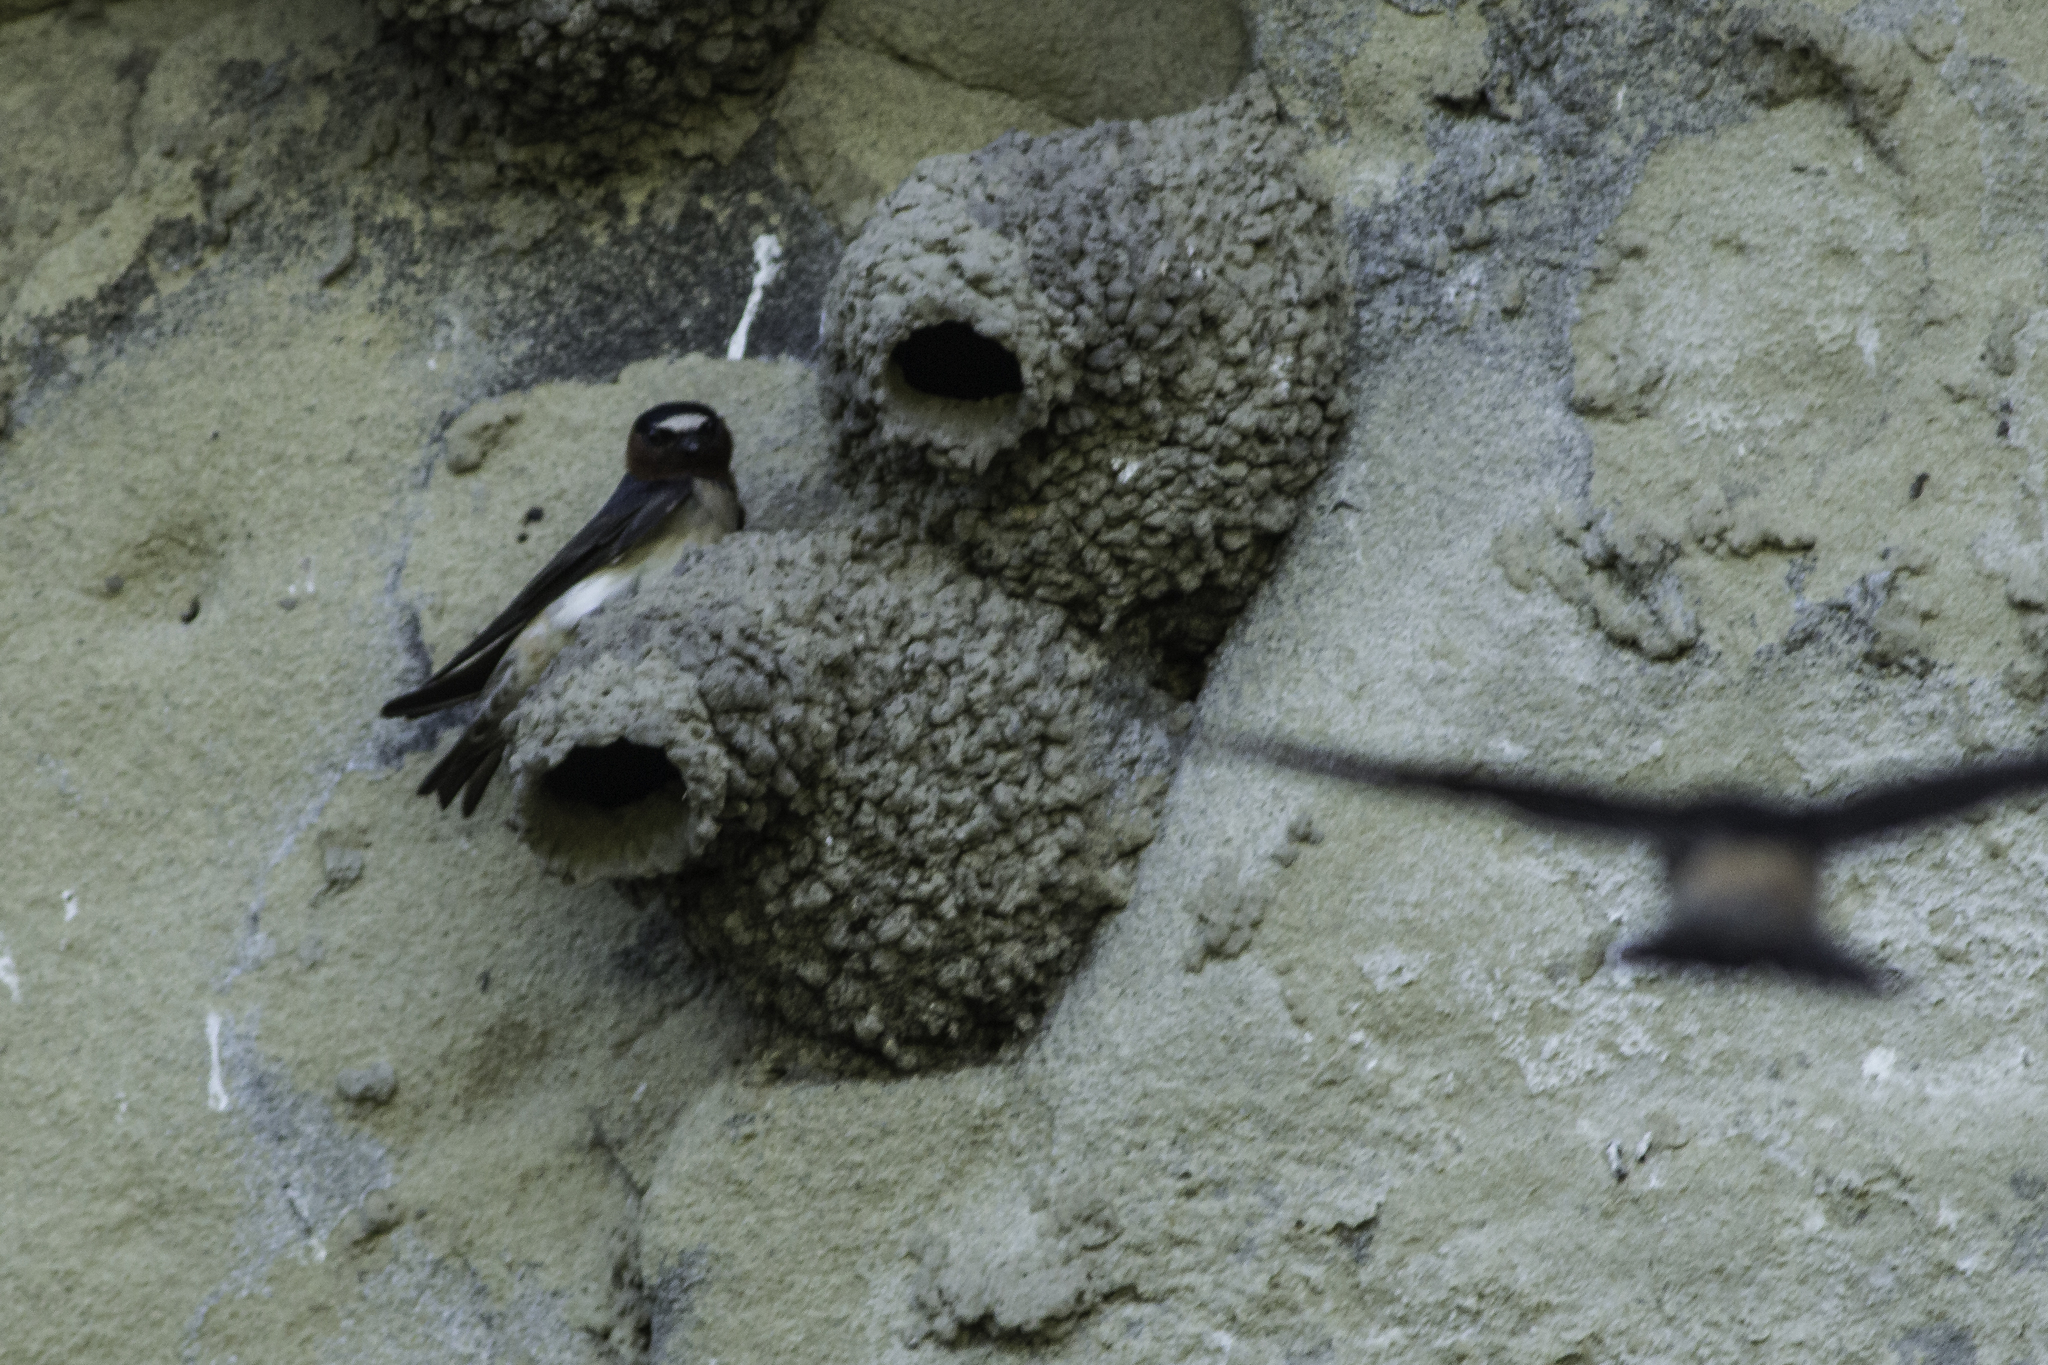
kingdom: Animalia
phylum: Chordata
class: Aves
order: Passeriformes
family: Hirundinidae
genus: Petrochelidon
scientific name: Petrochelidon pyrrhonota
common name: American cliff swallow
